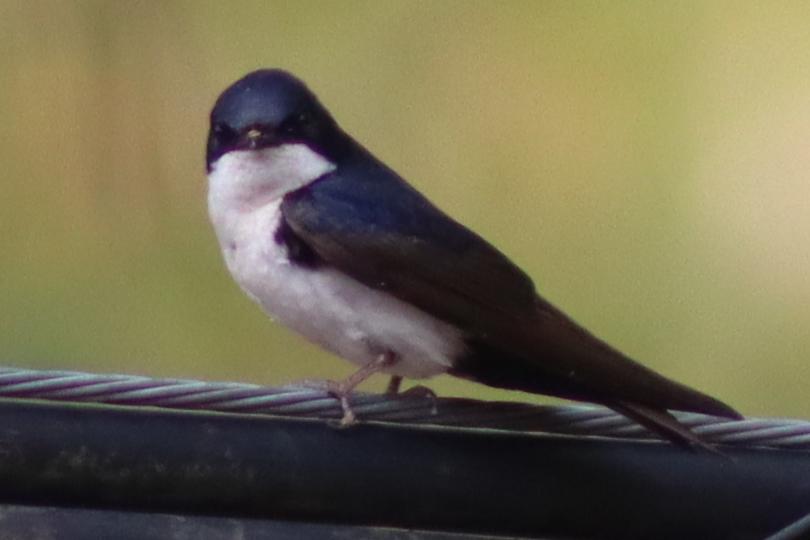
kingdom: Animalia
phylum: Chordata
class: Aves
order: Passeriformes
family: Hirundinidae
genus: Notiochelidon
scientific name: Notiochelidon cyanoleuca
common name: Blue-and-white swallow
